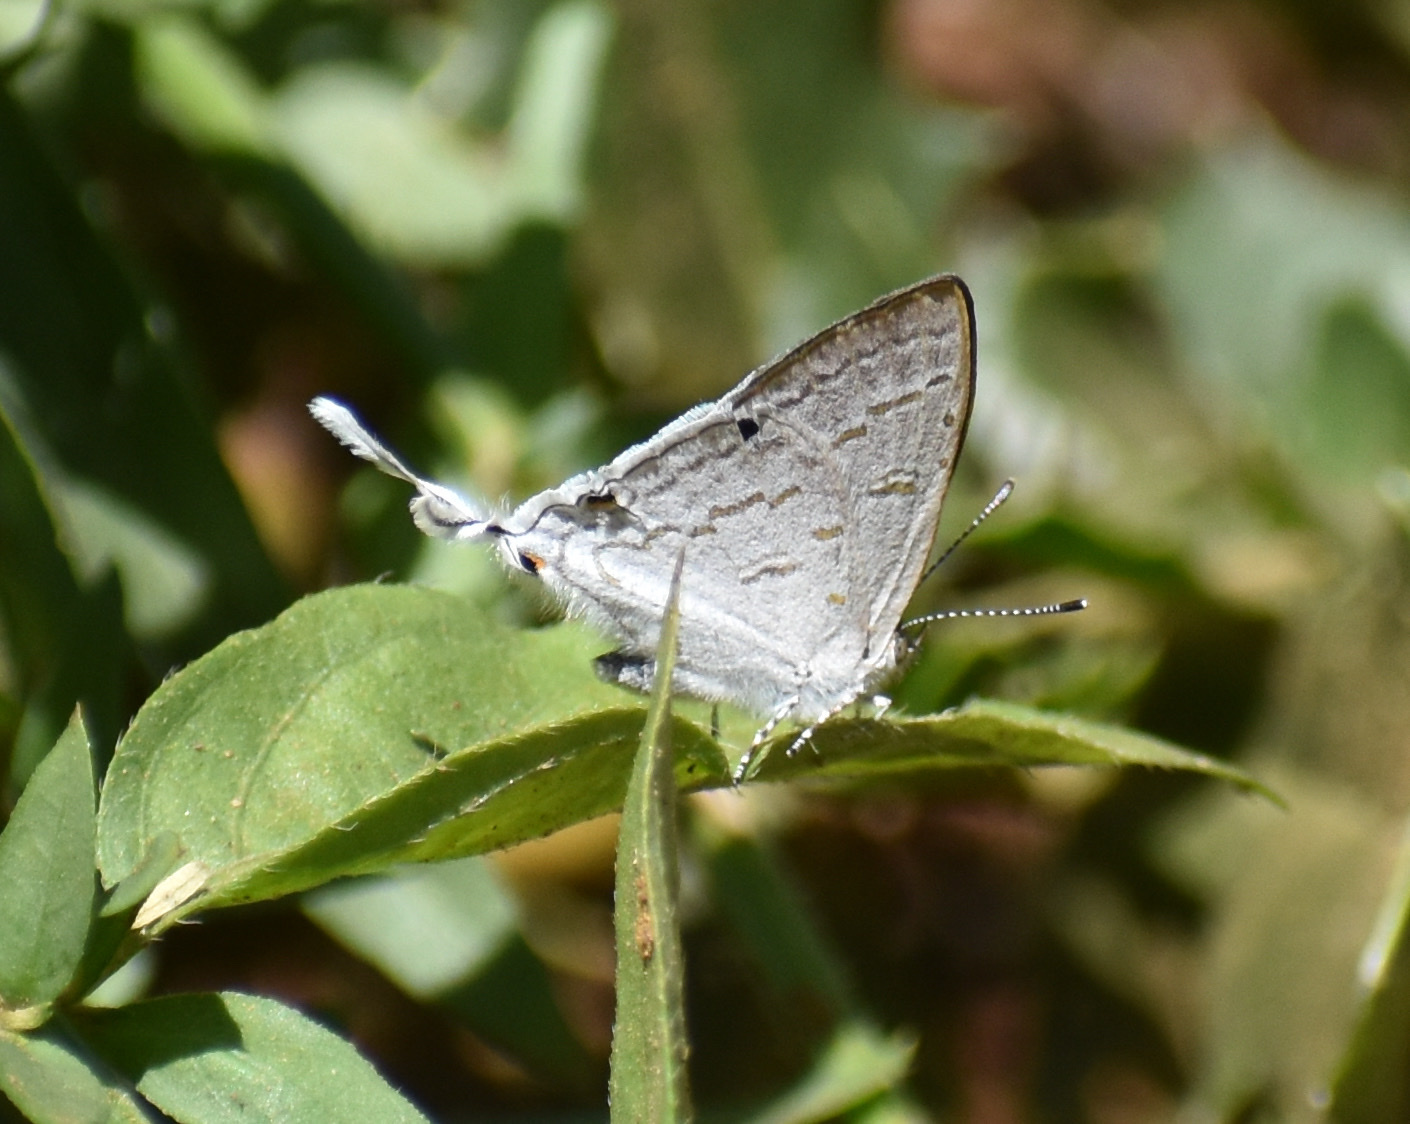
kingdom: Animalia
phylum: Arthropoda
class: Insecta
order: Lepidoptera
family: Lycaenidae
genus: Leptomyrina
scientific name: Leptomyrina hirundo
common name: Tailed black-eye
